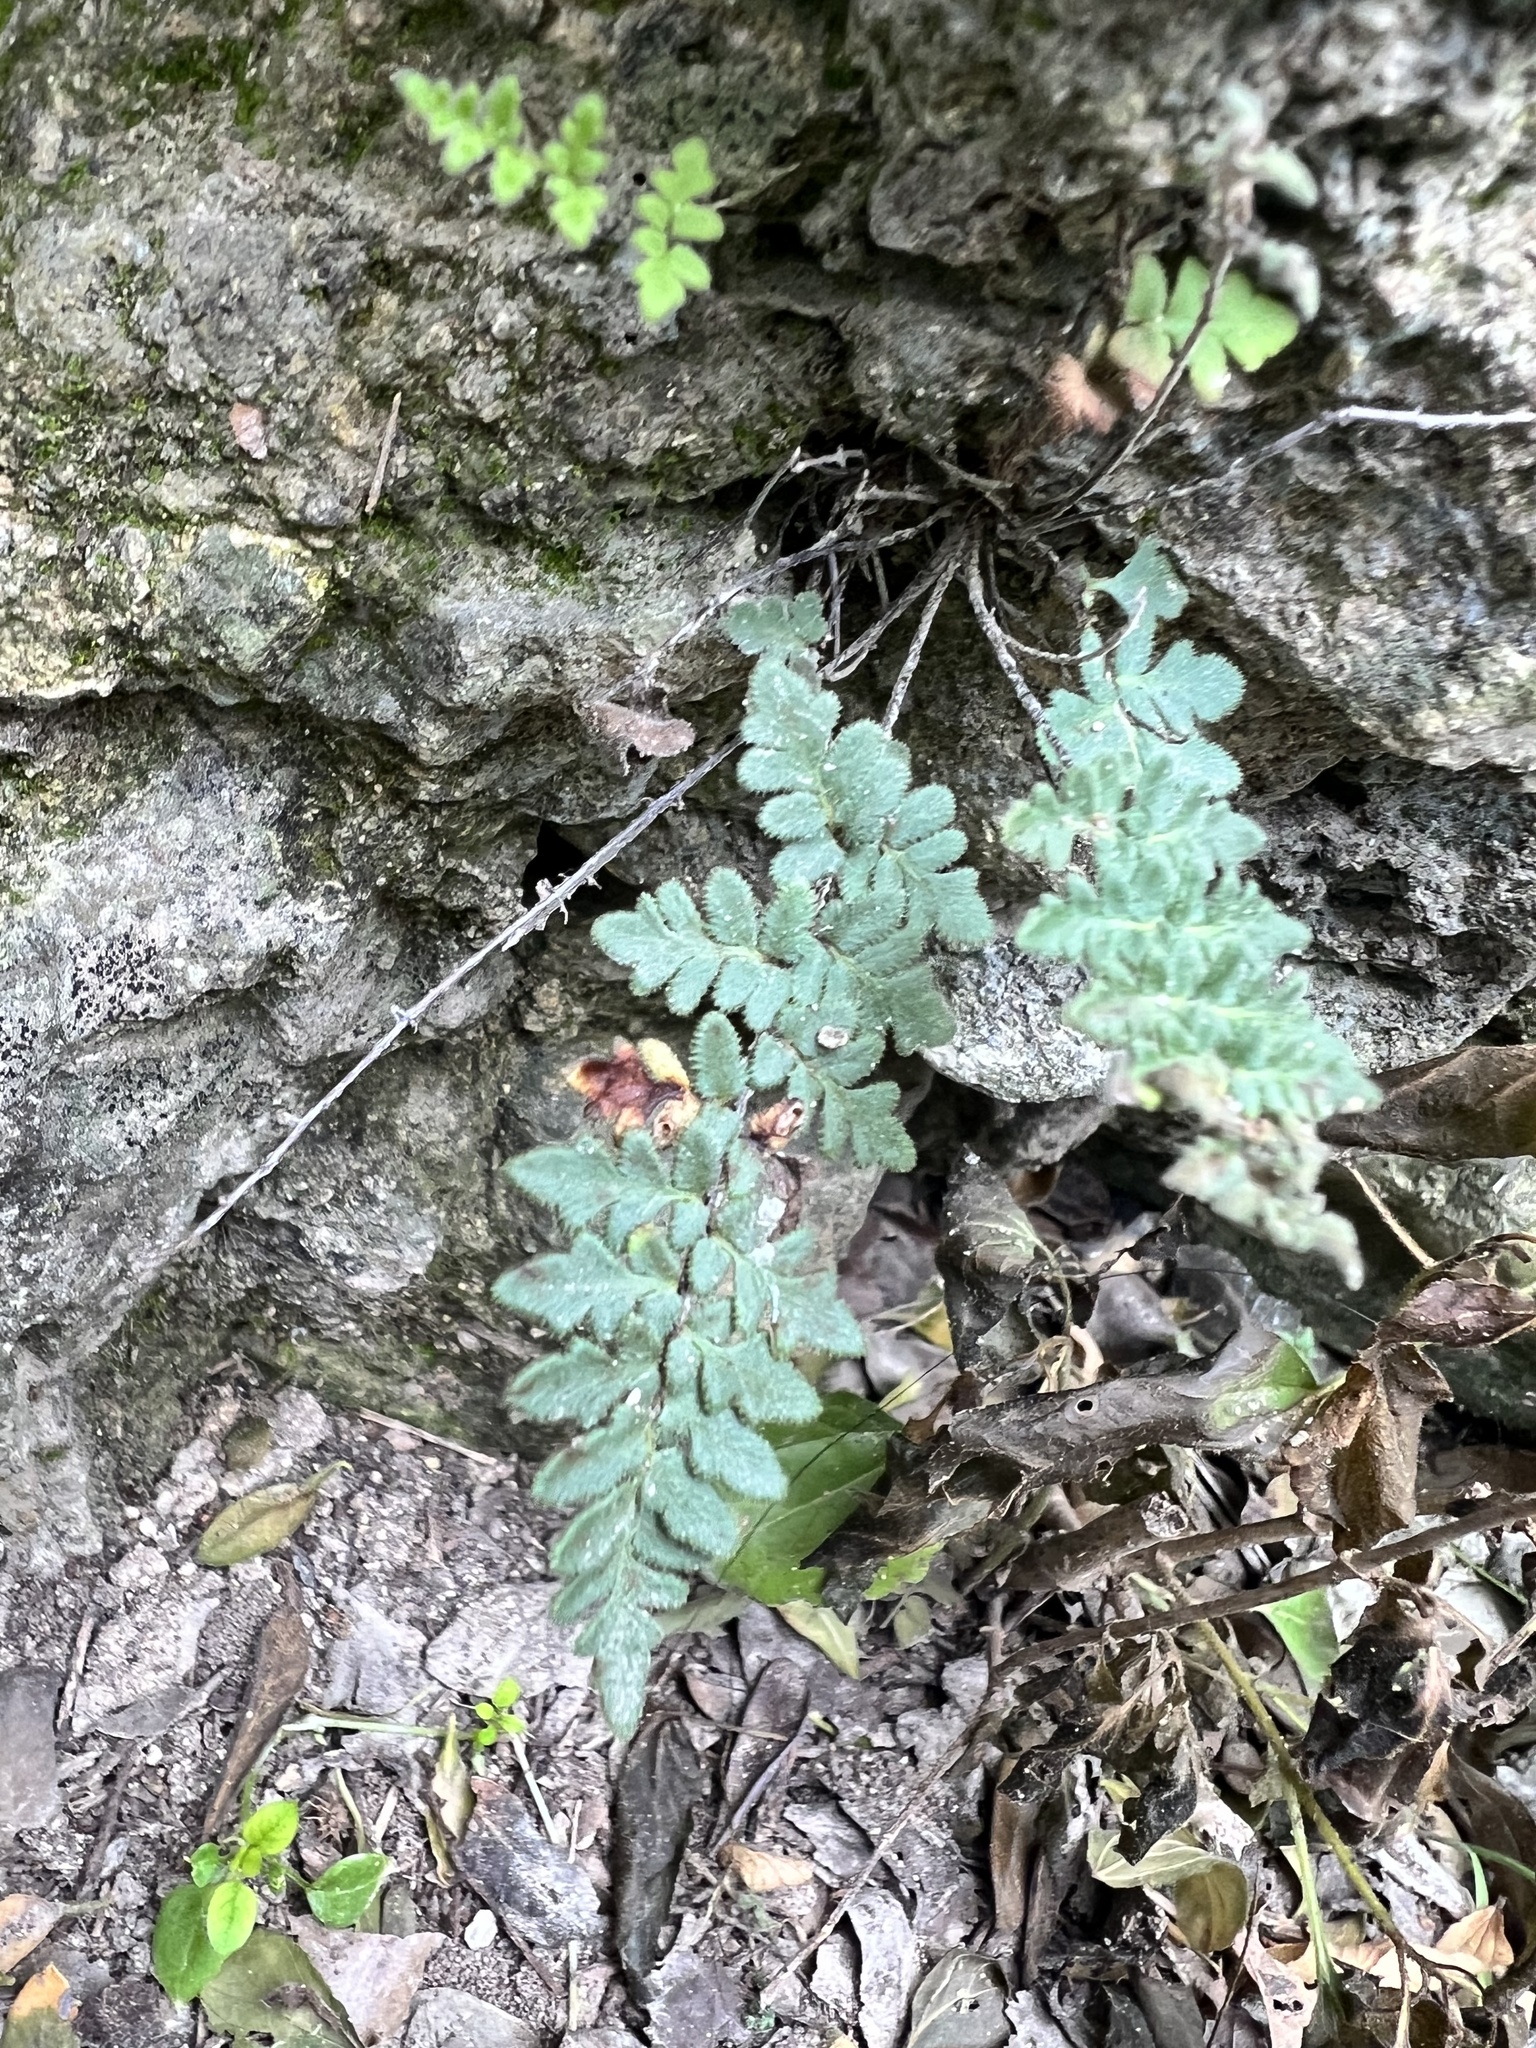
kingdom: Plantae
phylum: Tracheophyta
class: Polypodiopsida
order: Polypodiales
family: Pteridaceae
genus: Myriopteris
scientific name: Myriopteris scabra
